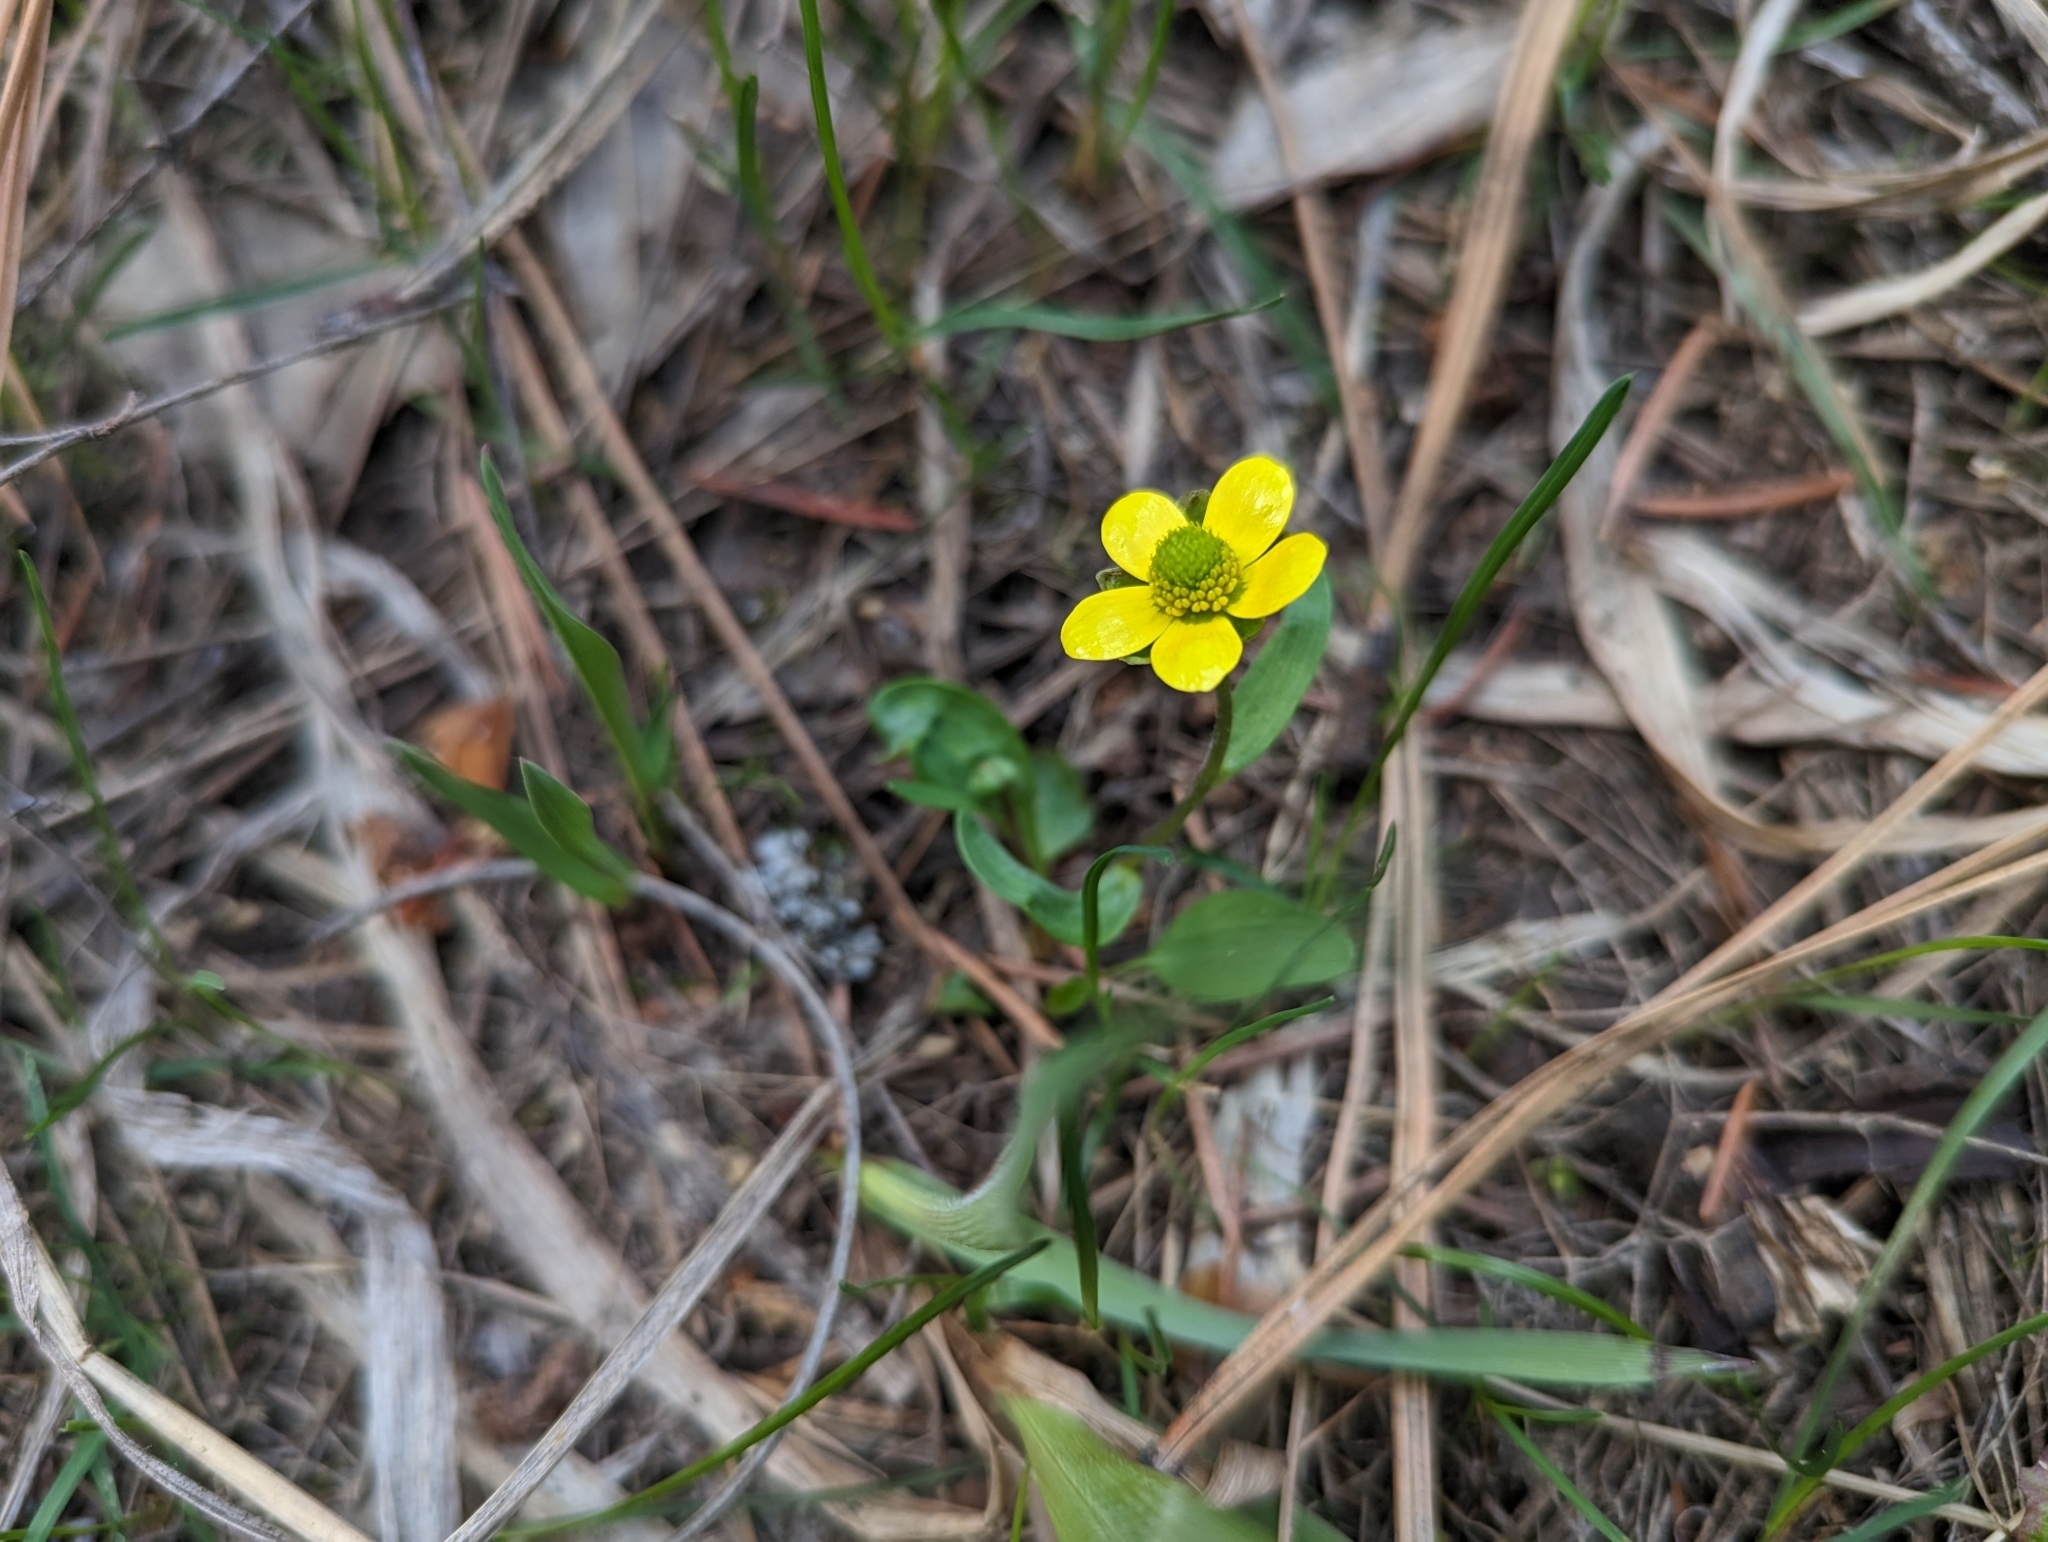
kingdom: Plantae
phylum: Tracheophyta
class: Magnoliopsida
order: Ranunculales
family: Ranunculaceae
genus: Ranunculus
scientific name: Ranunculus glaberrimus
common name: Sagebrush buttercup
